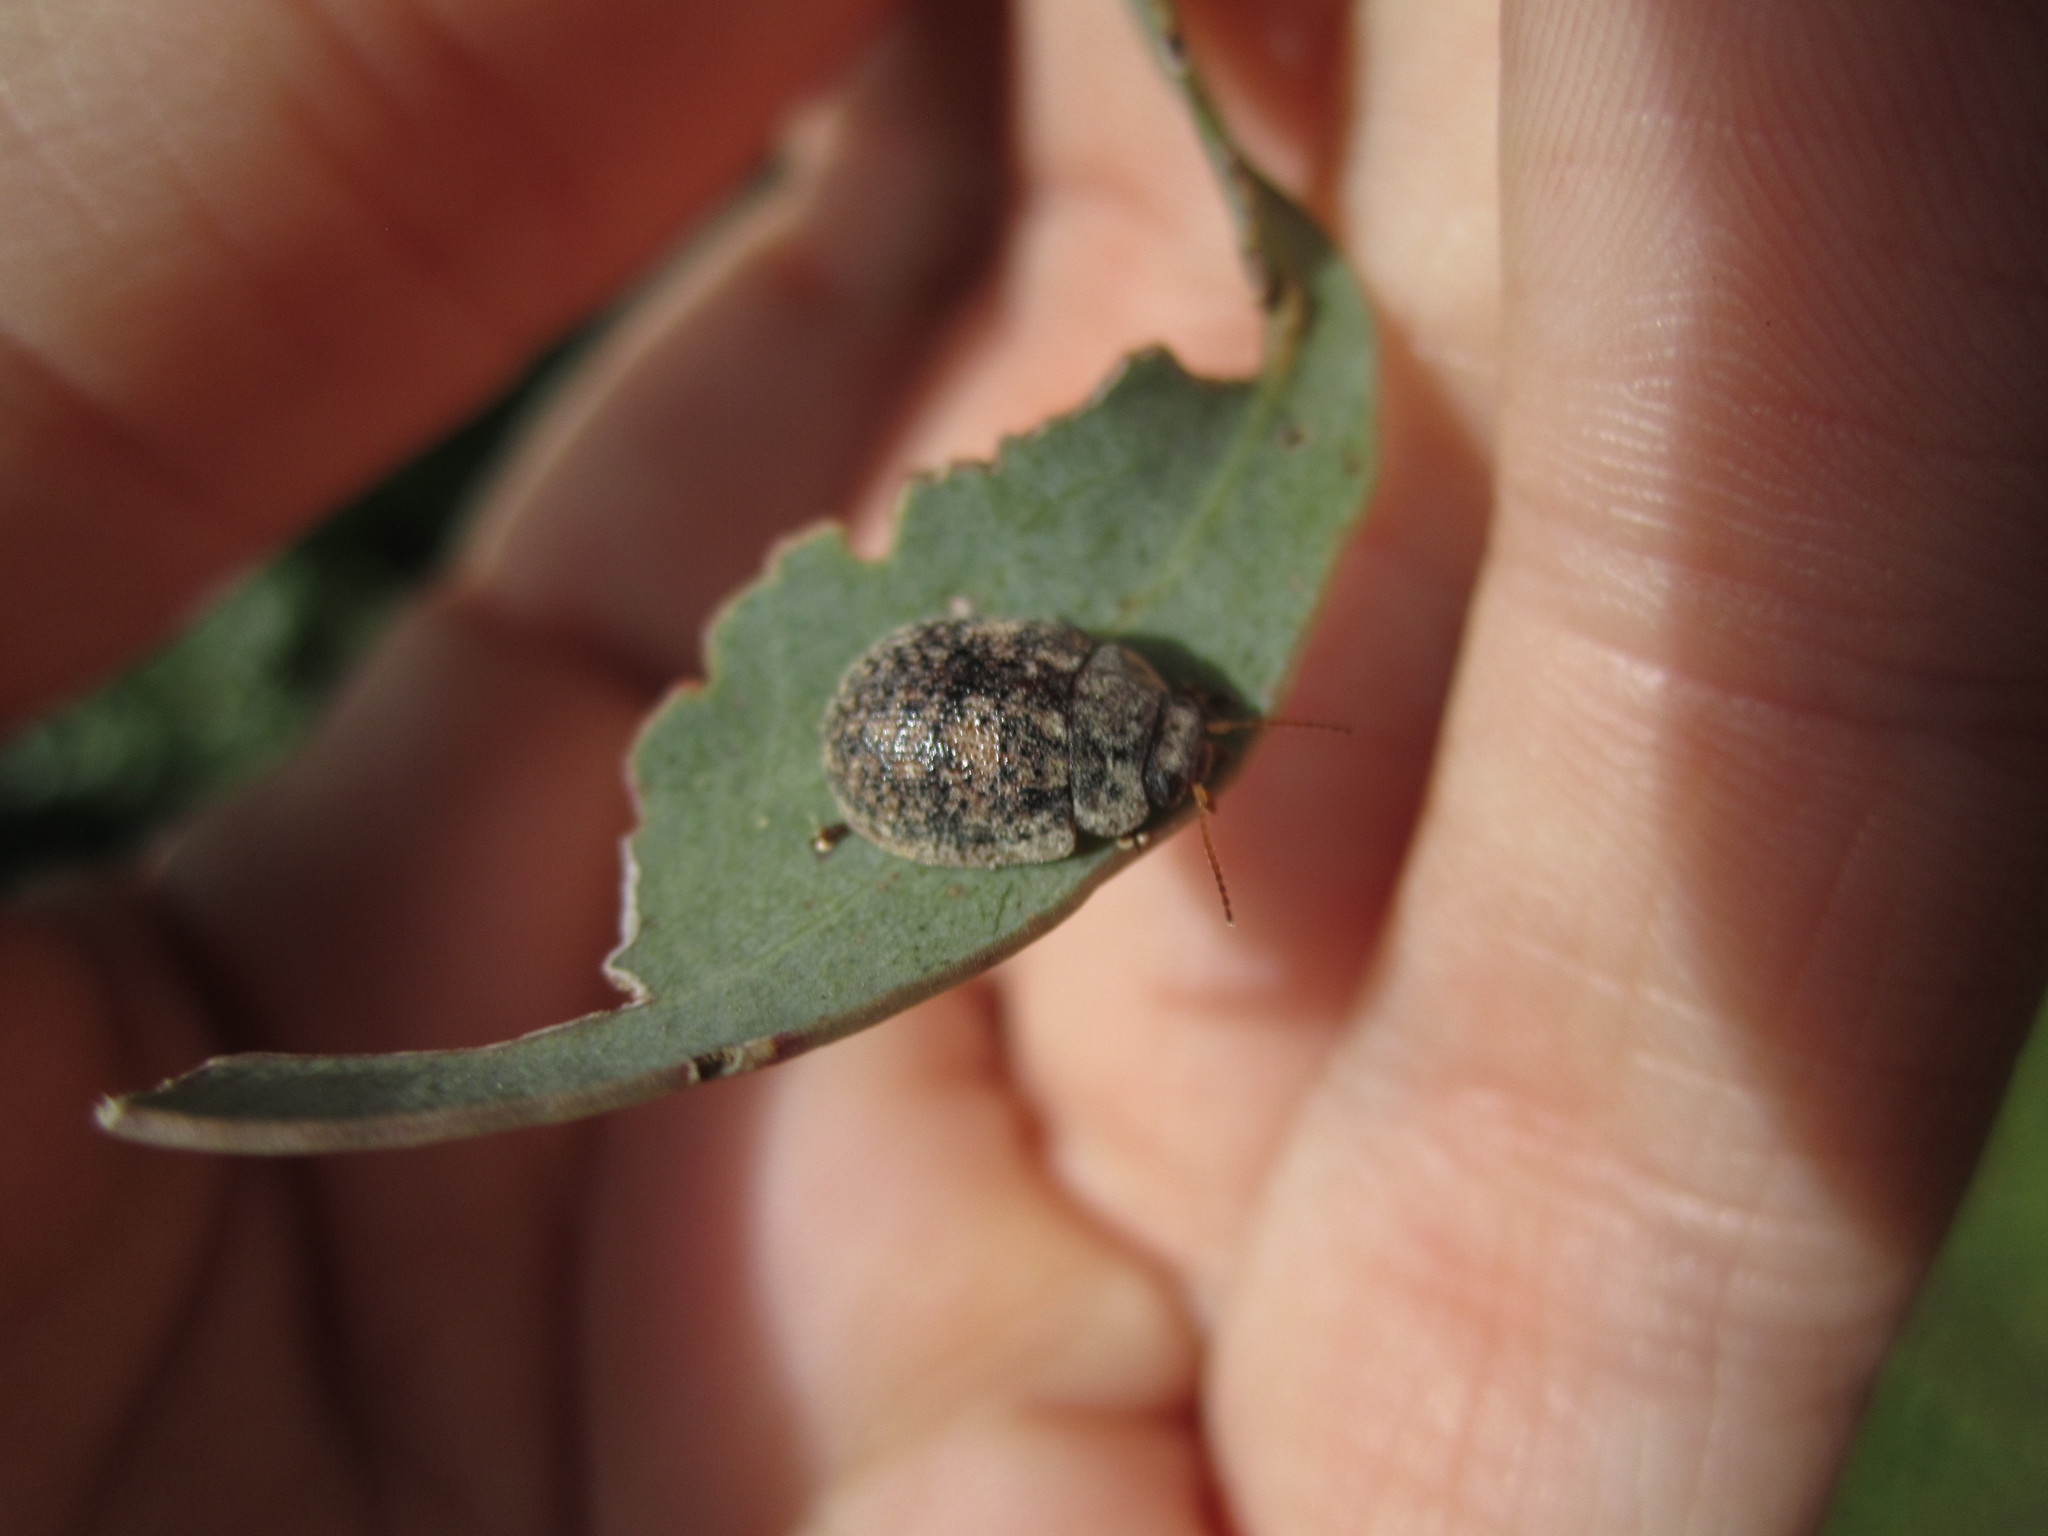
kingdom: Animalia
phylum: Arthropoda
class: Insecta
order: Coleoptera
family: Chrysomelidae
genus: Trachymela
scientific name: Trachymela sloanei
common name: Australian tortoise beetle
